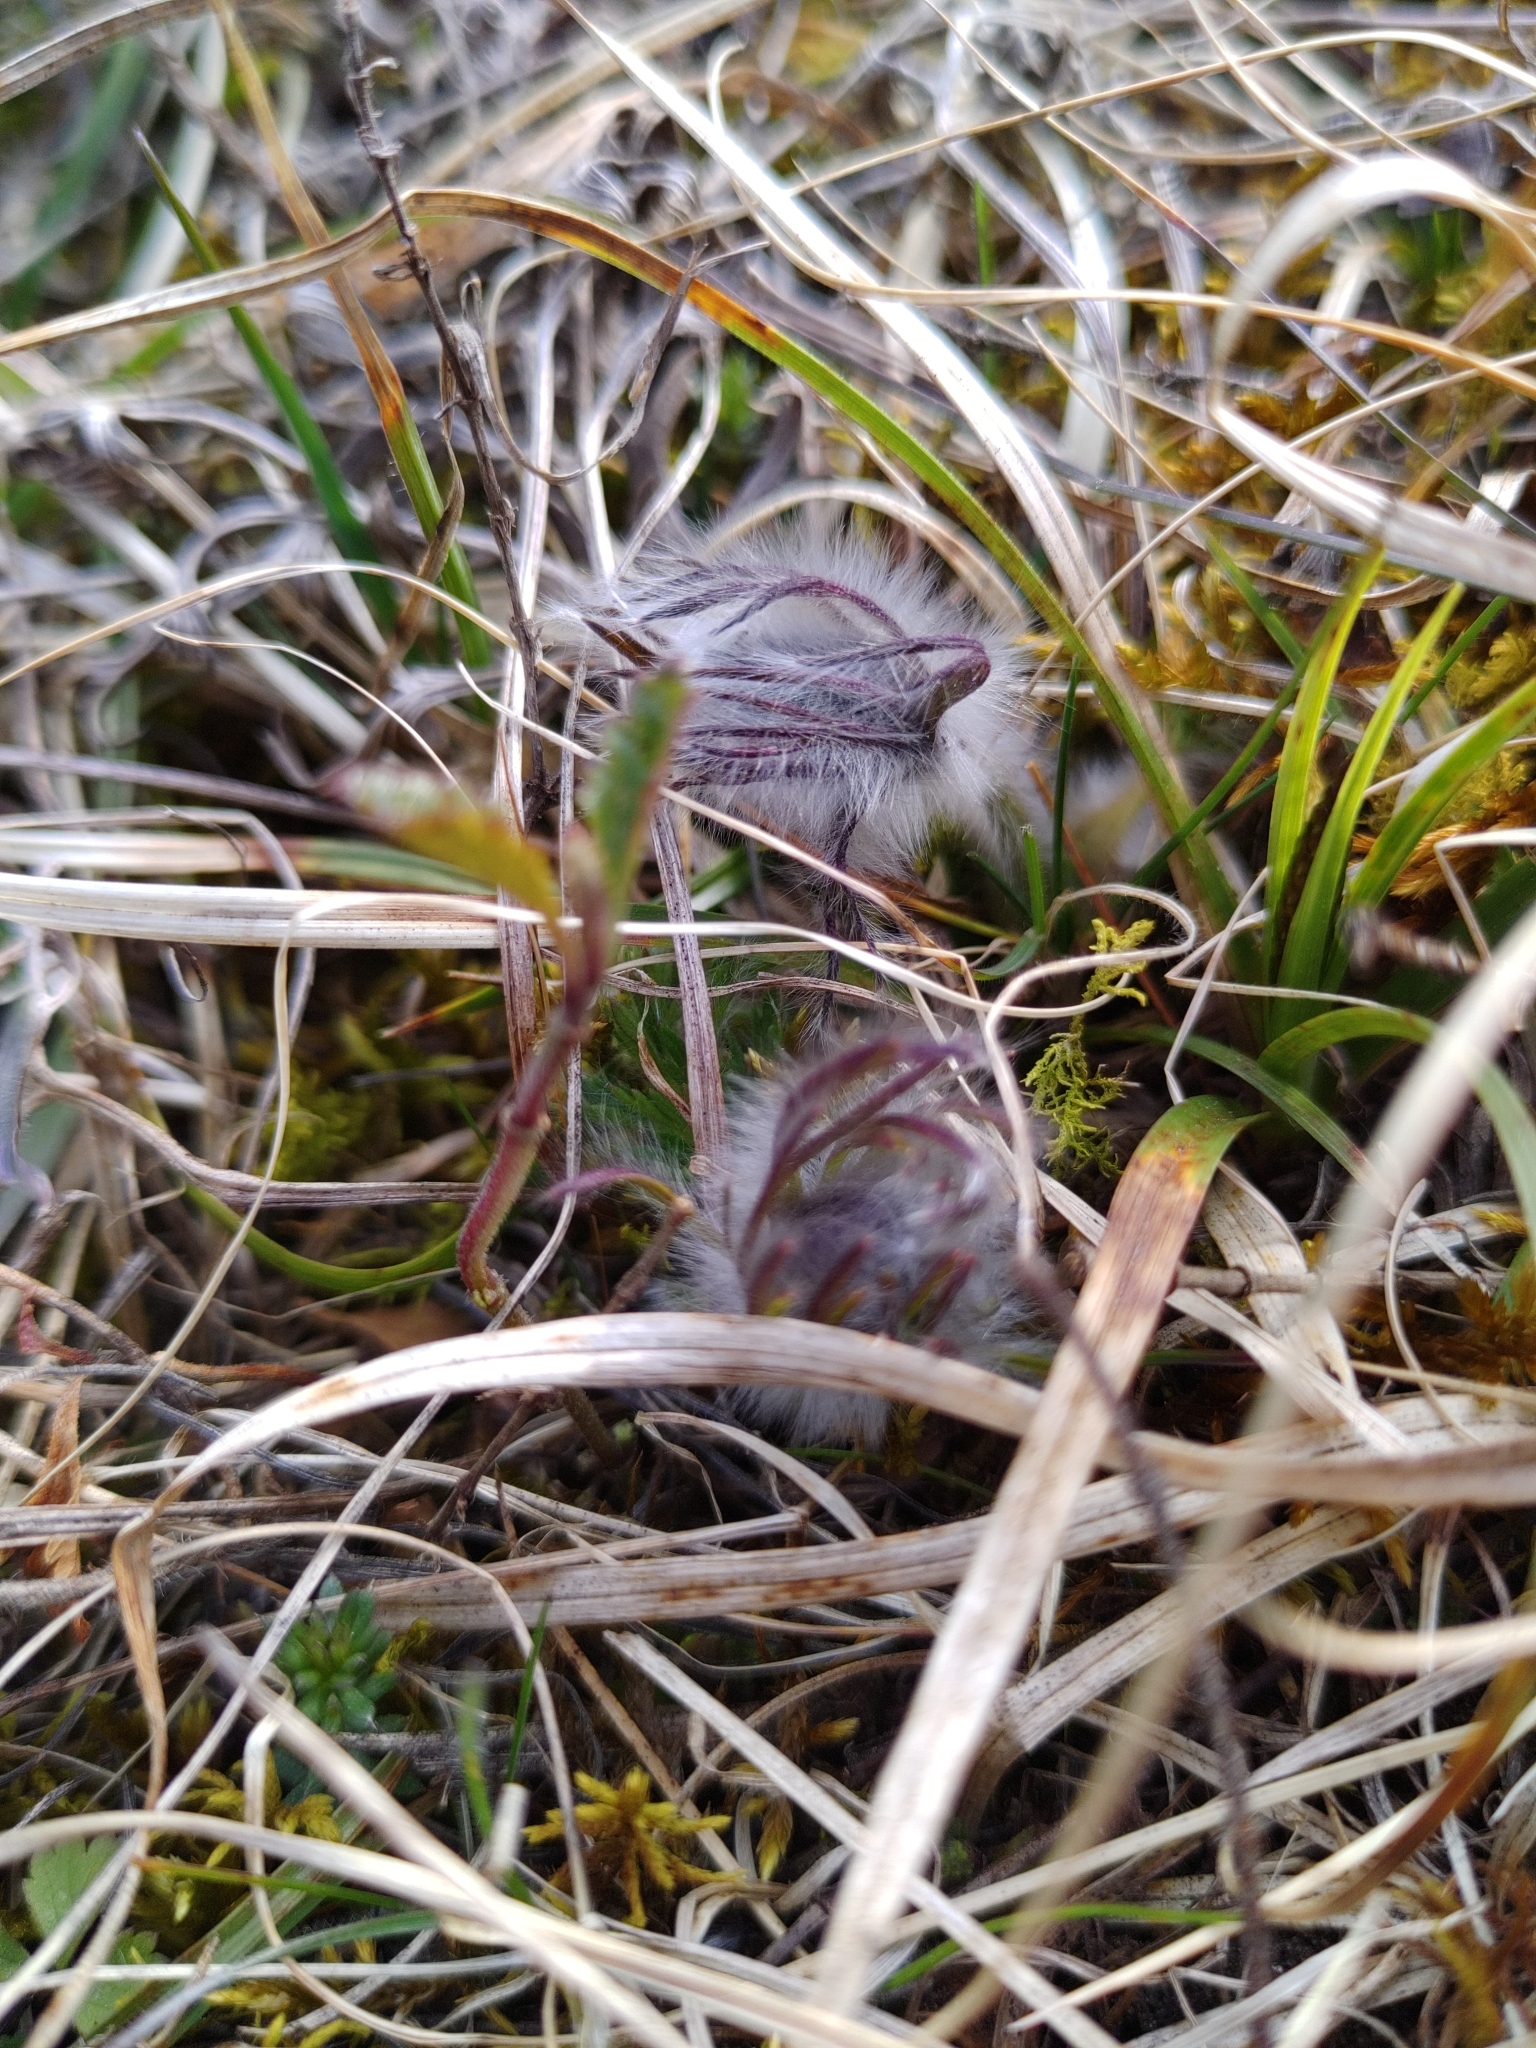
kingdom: Plantae
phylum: Tracheophyta
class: Magnoliopsida
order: Ranunculales
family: Ranunculaceae
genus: Pulsatilla
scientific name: Pulsatilla pratensis
